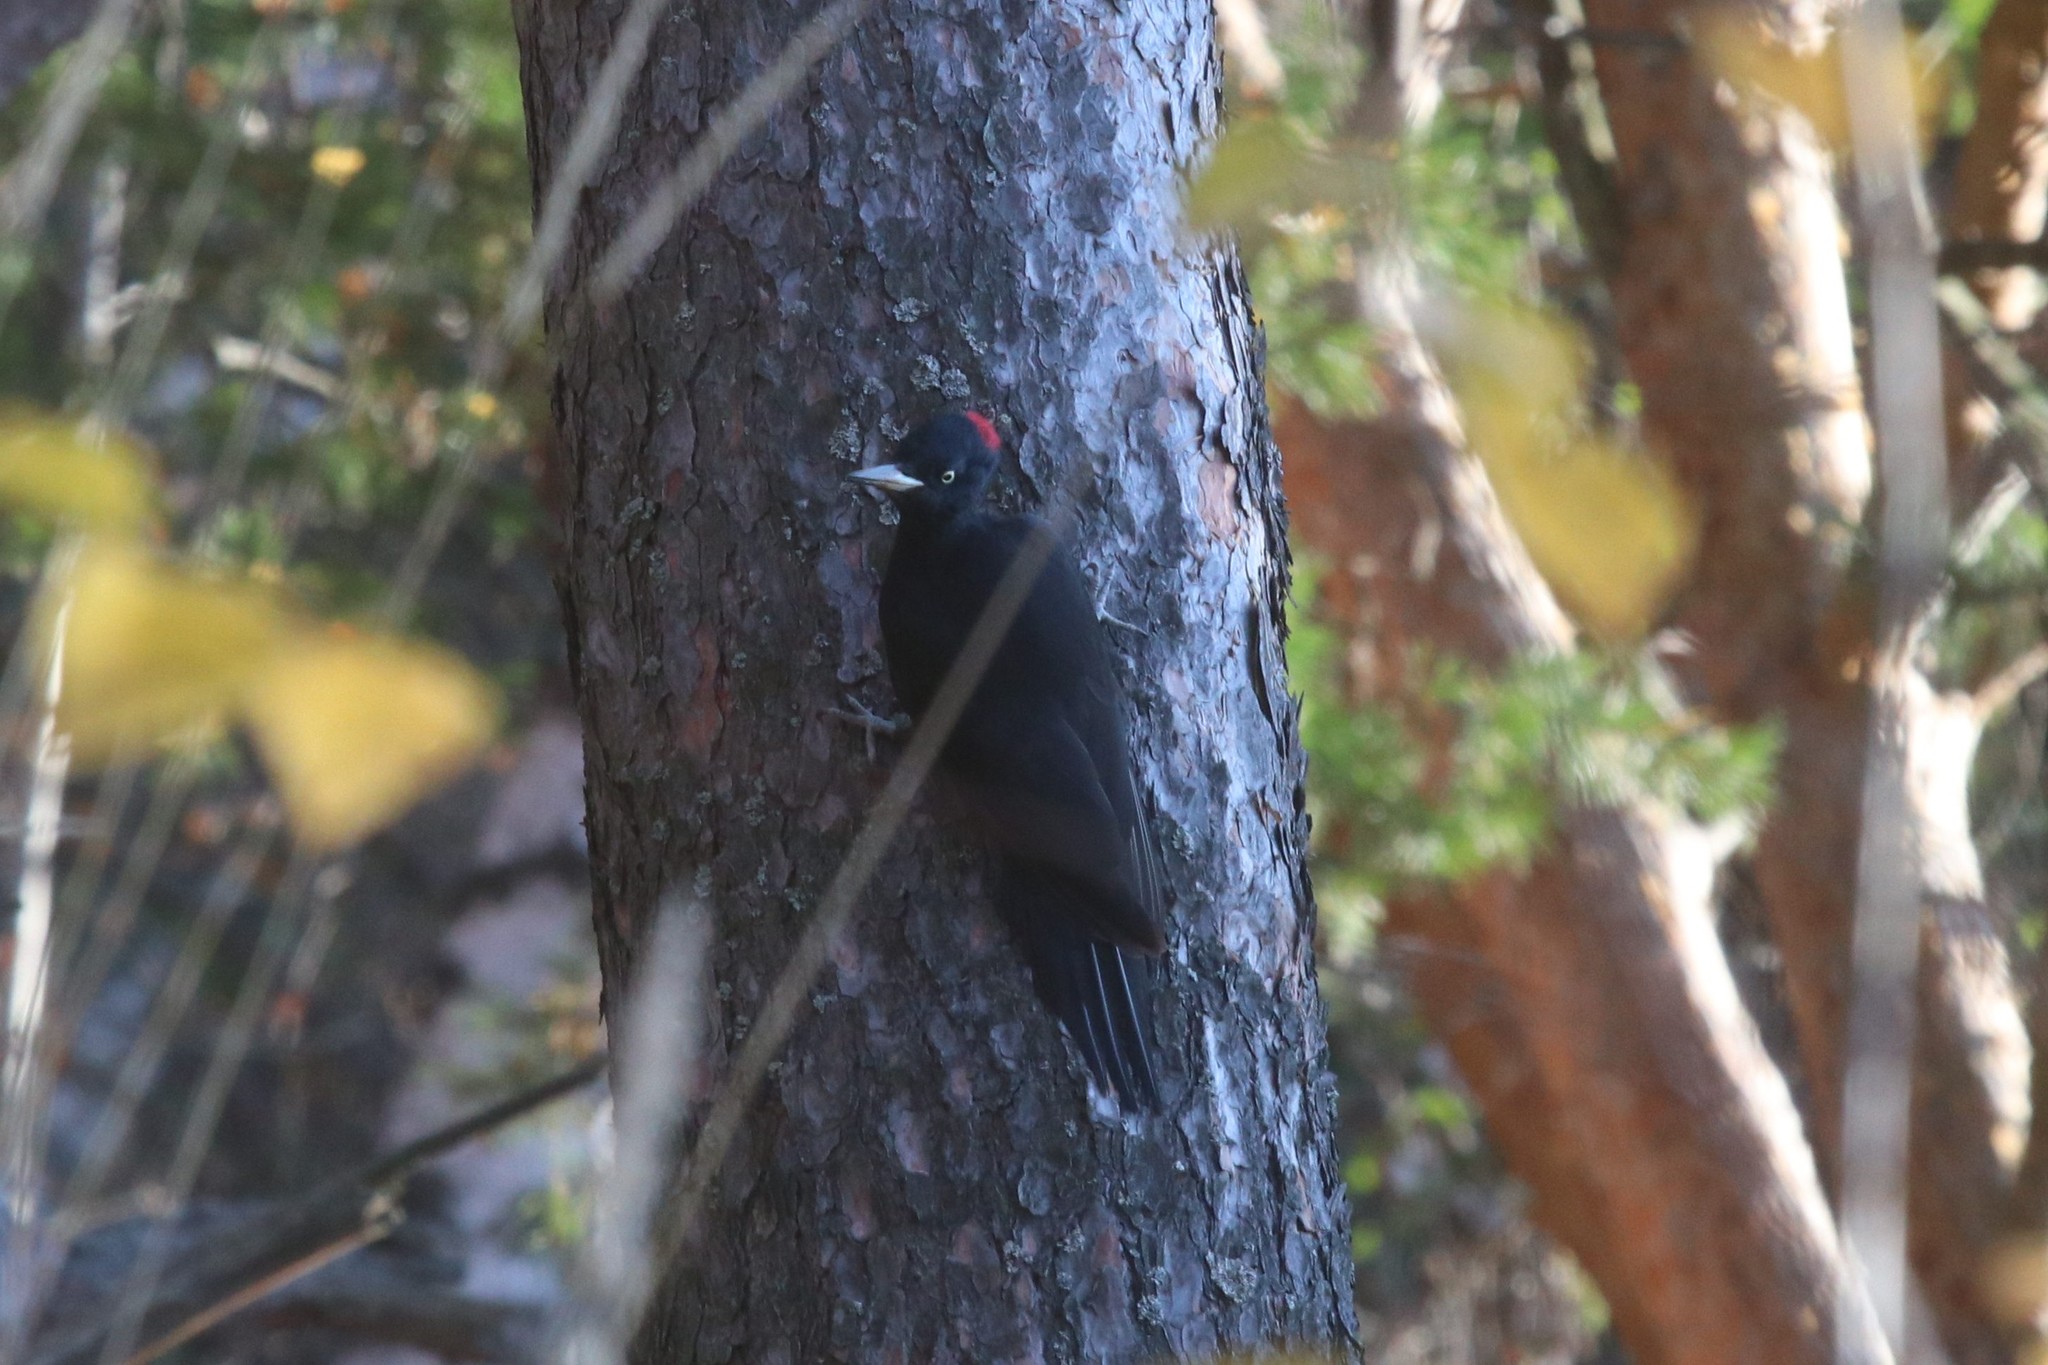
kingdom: Animalia
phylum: Chordata
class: Aves
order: Piciformes
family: Picidae
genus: Dryocopus
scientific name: Dryocopus martius
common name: Black woodpecker
